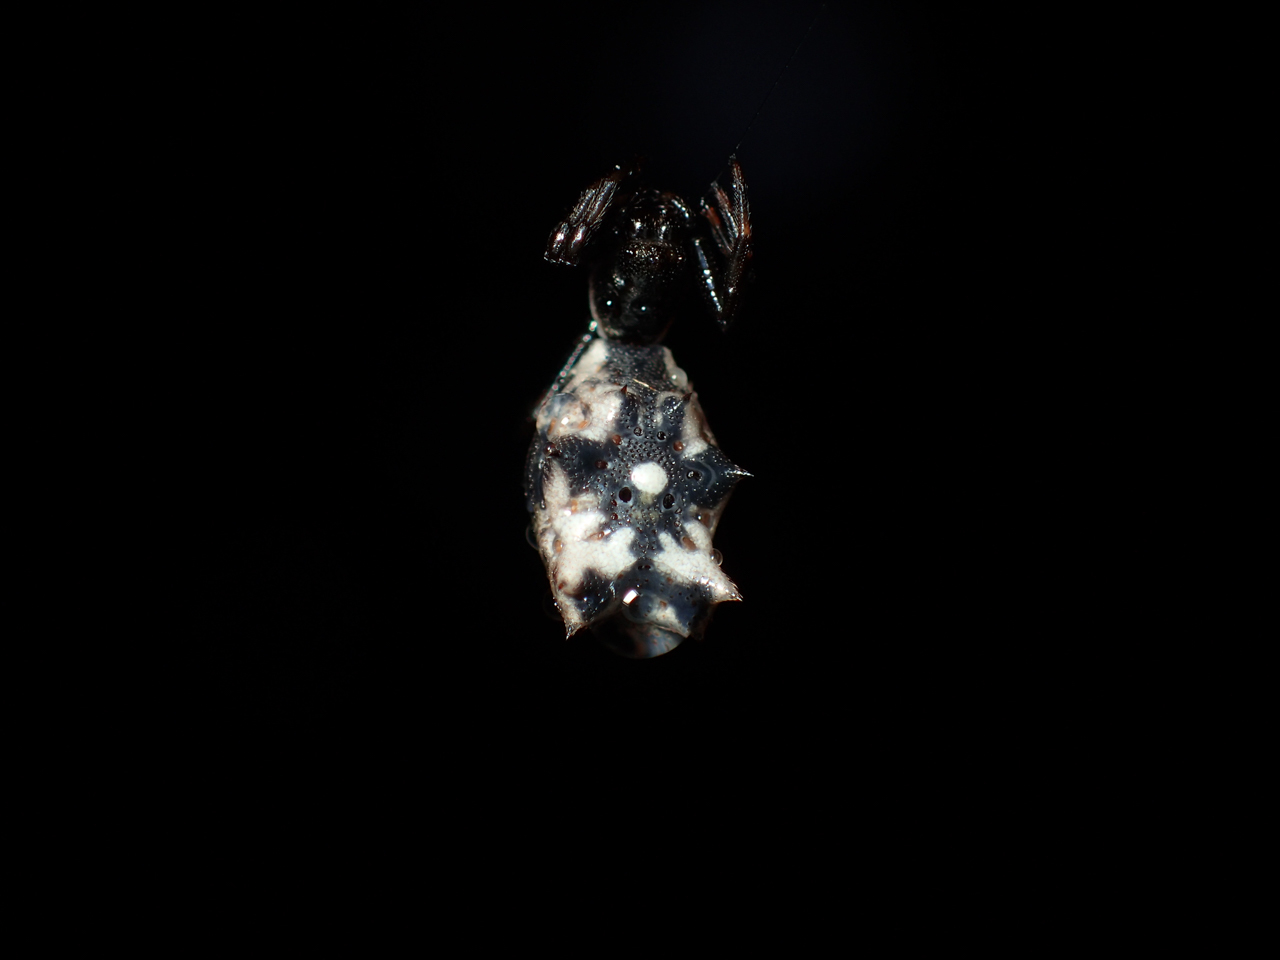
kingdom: Animalia
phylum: Arthropoda
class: Arachnida
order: Araneae
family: Araneidae
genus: Micrathena
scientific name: Micrathena gracilis
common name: Orb weavers
